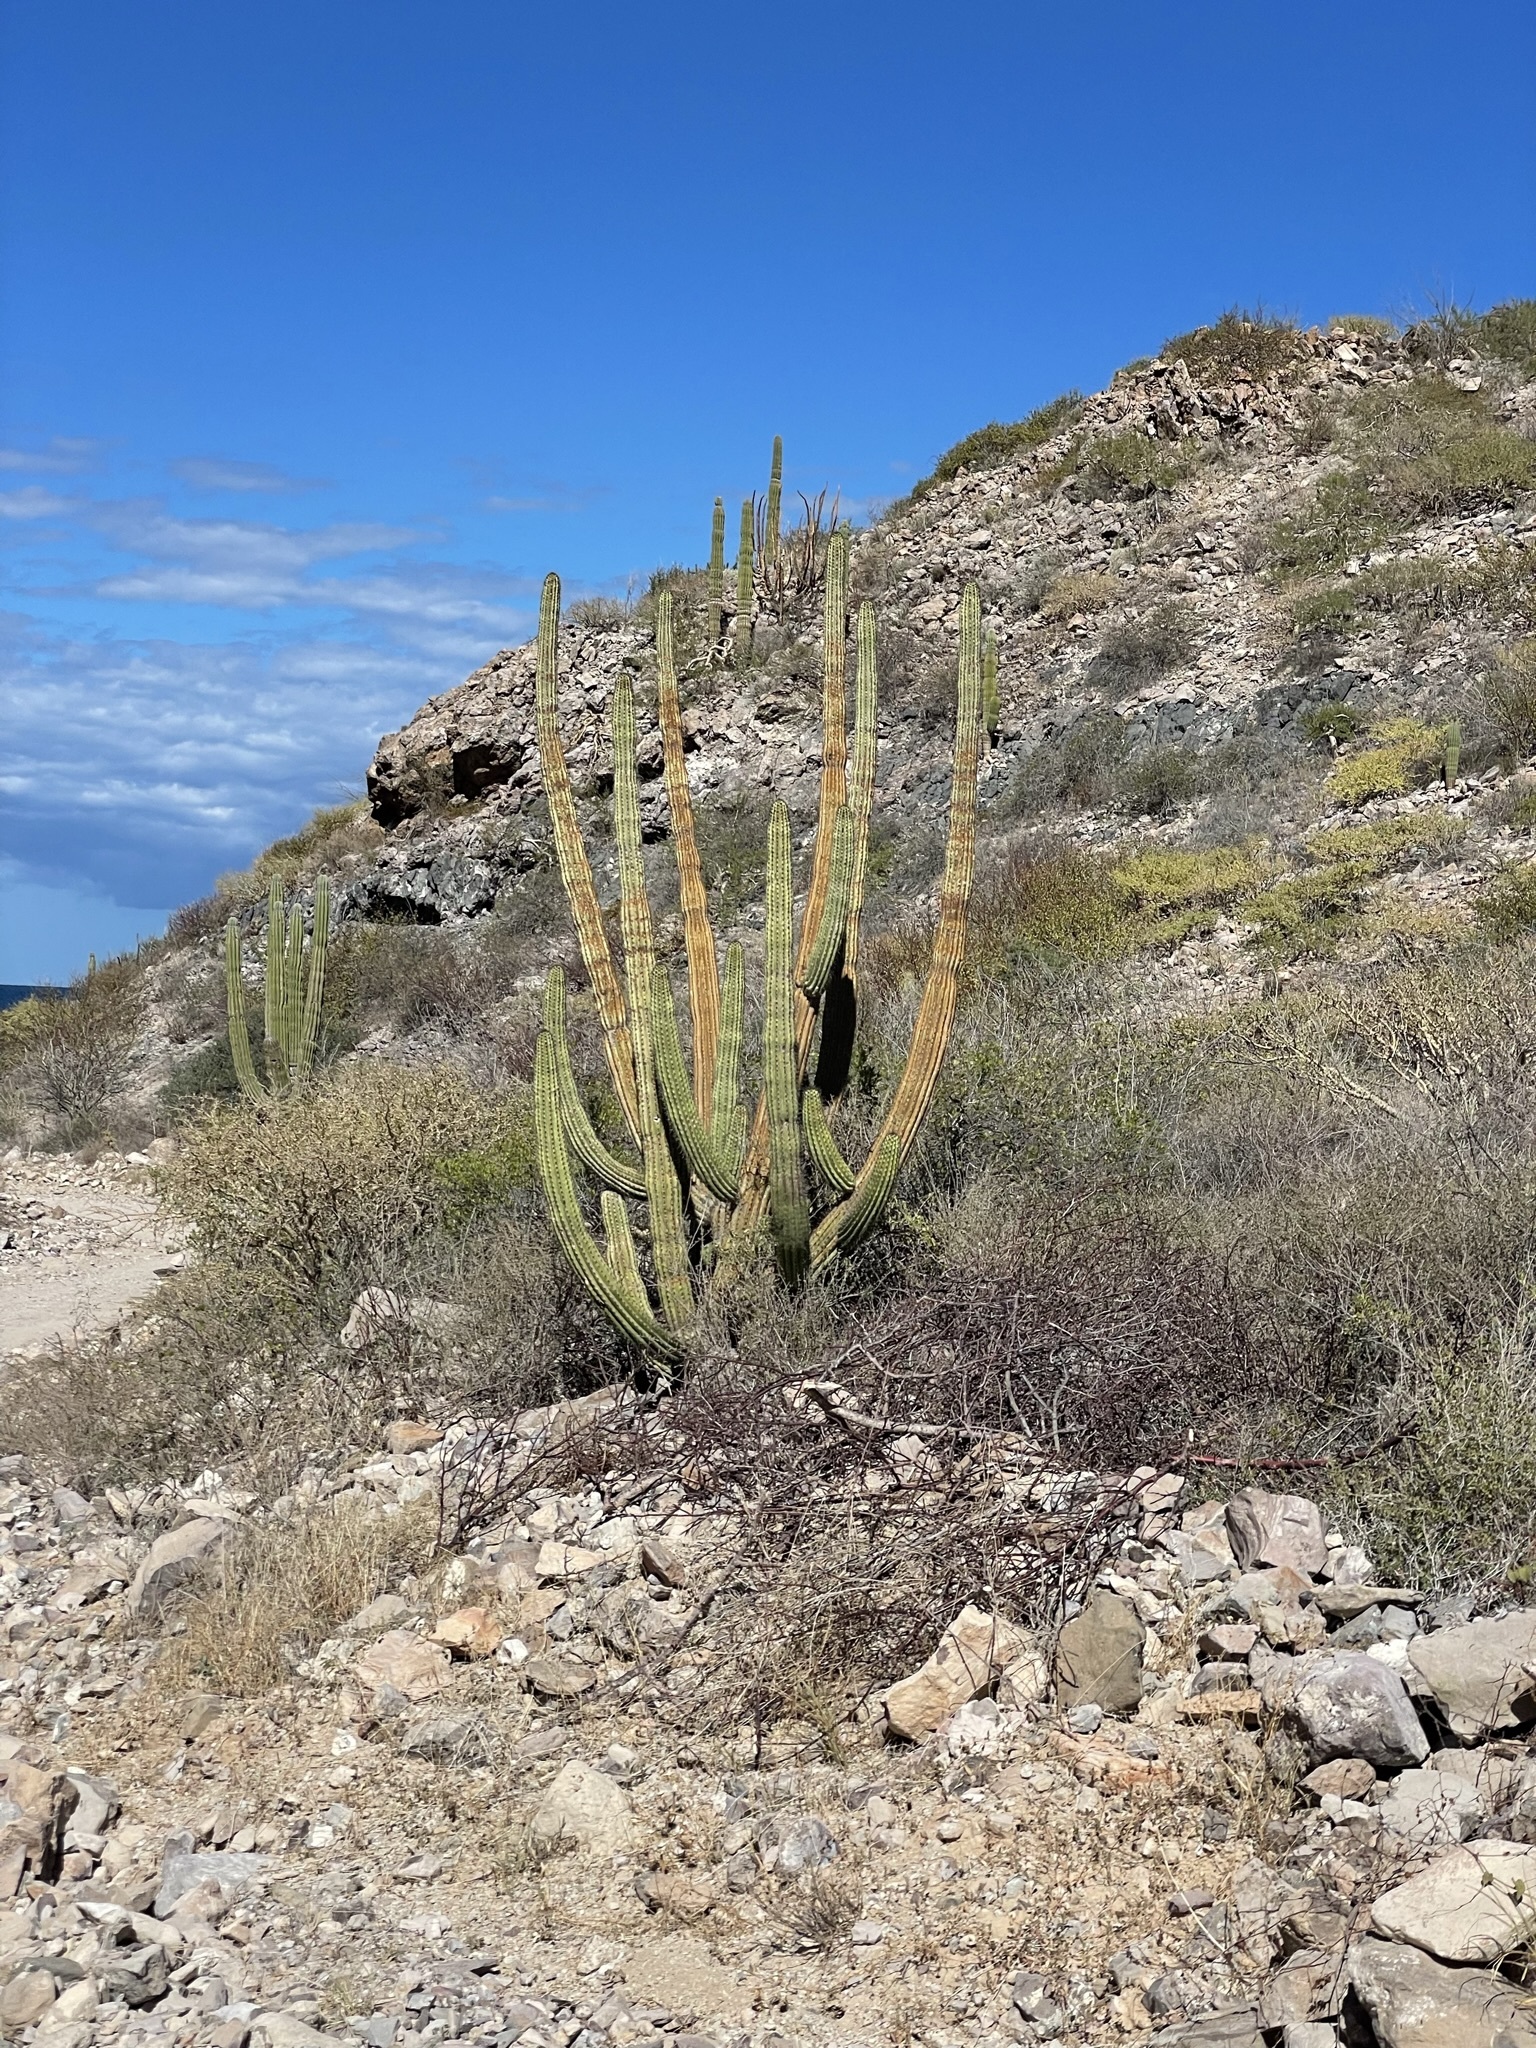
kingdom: Plantae
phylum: Tracheophyta
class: Magnoliopsida
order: Caryophyllales
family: Cactaceae
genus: Stenocereus
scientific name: Stenocereus thurberi
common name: Organ pipe cactus
